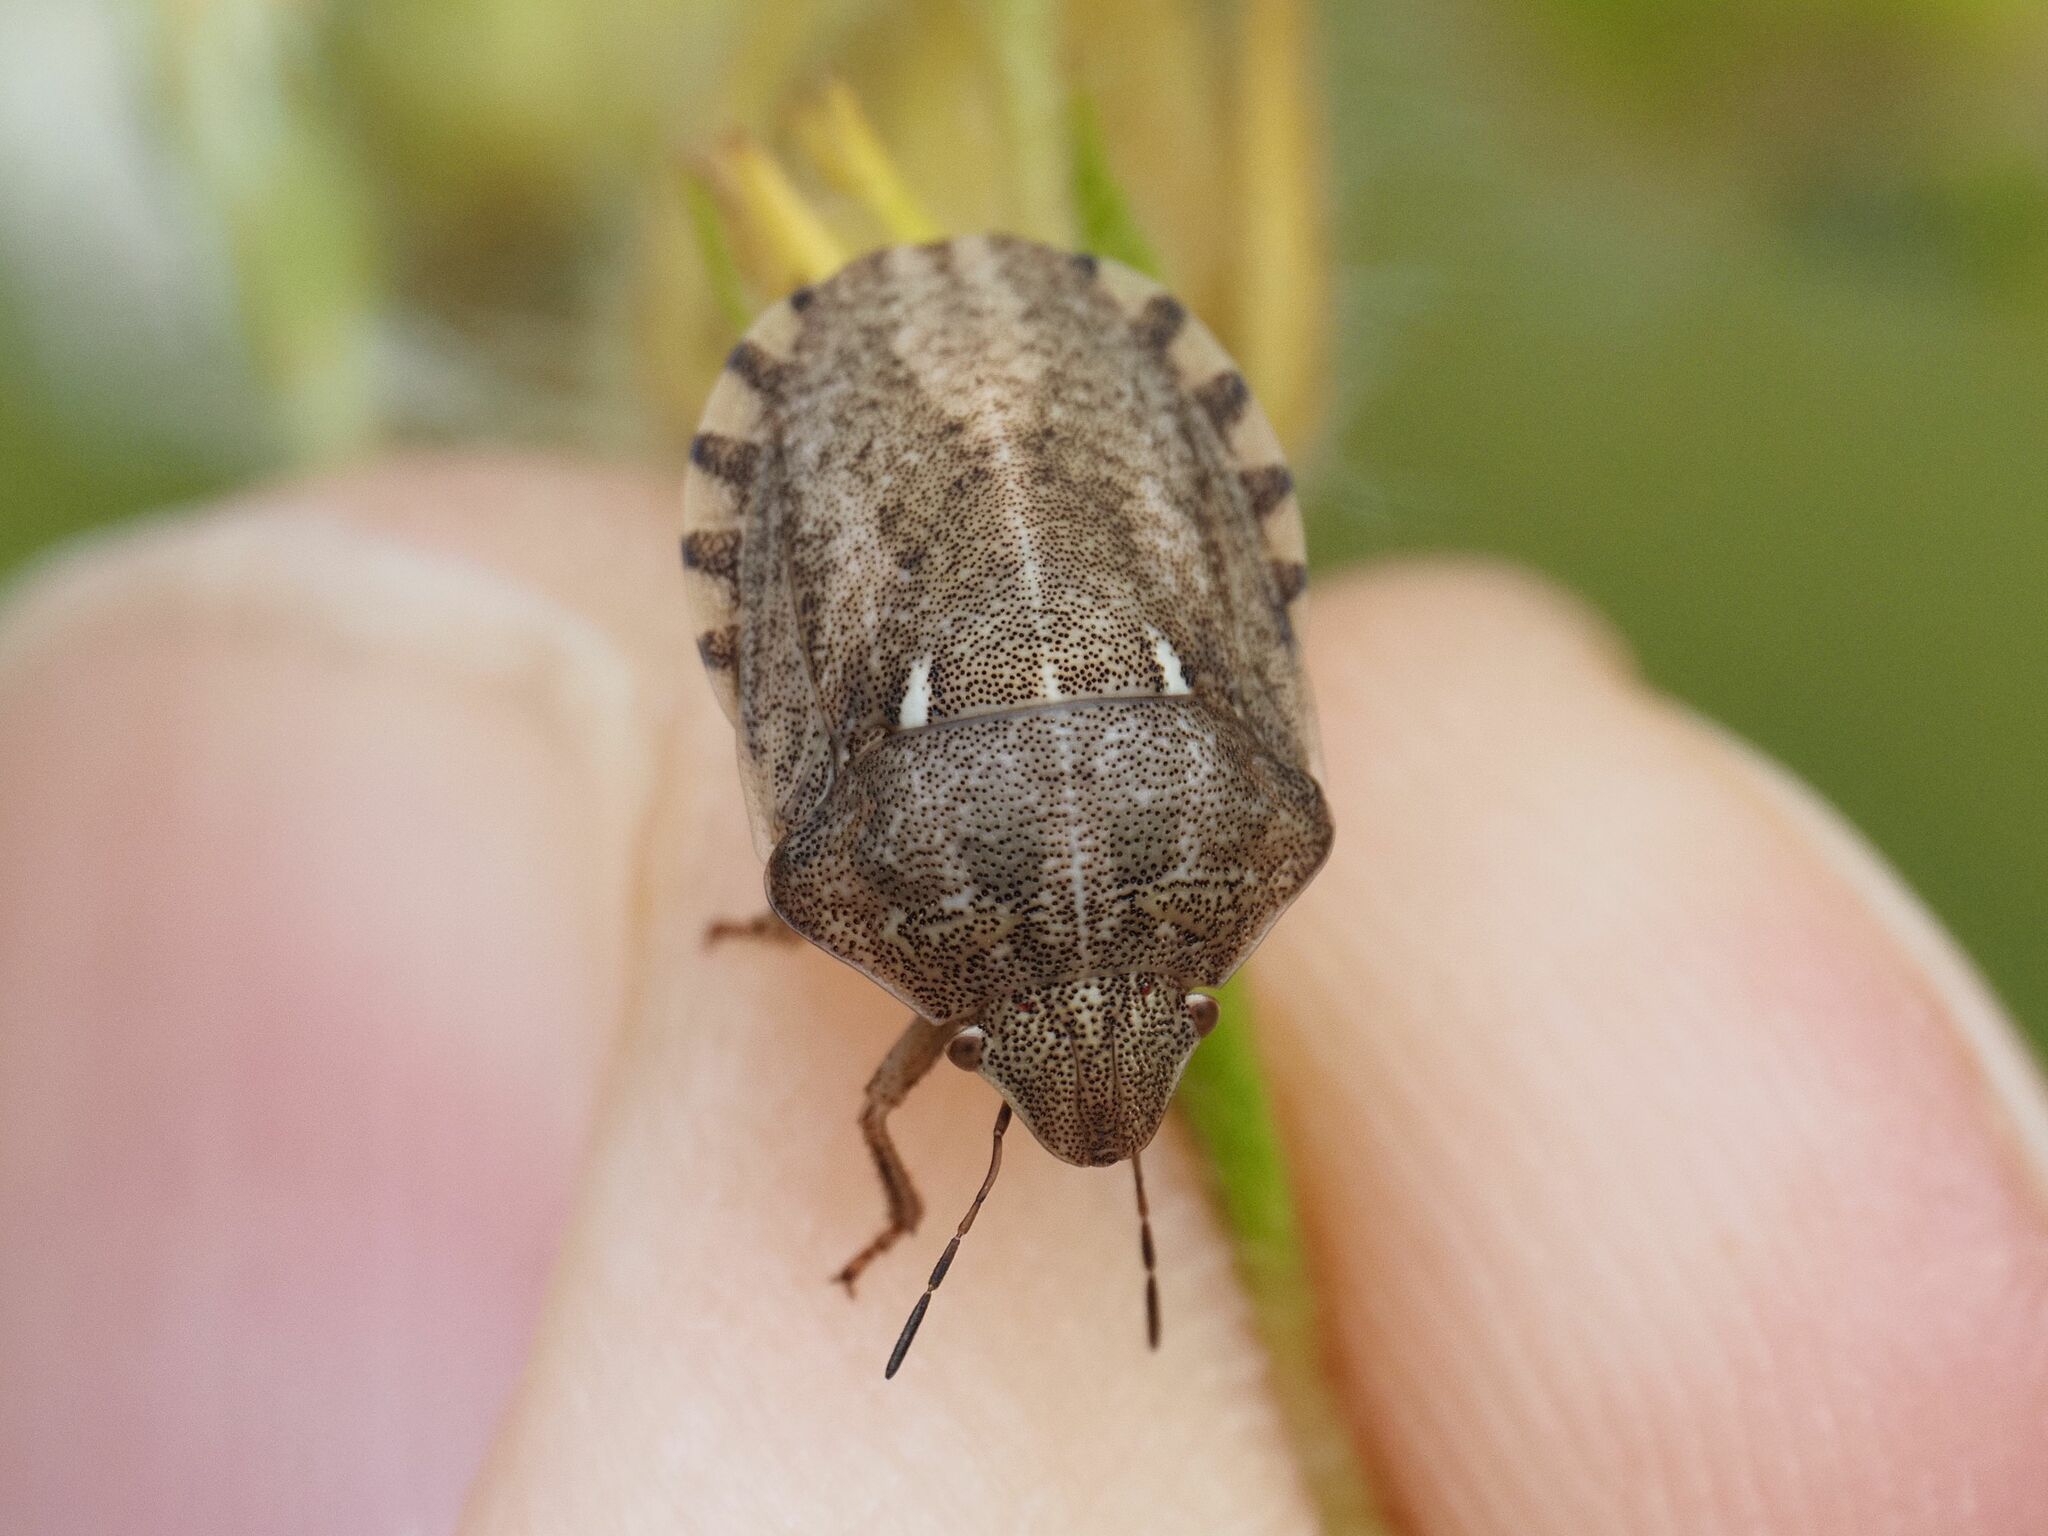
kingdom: Animalia
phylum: Arthropoda
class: Insecta
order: Hemiptera
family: Scutelleridae
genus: Eurygaster
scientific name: Eurygaster maura
